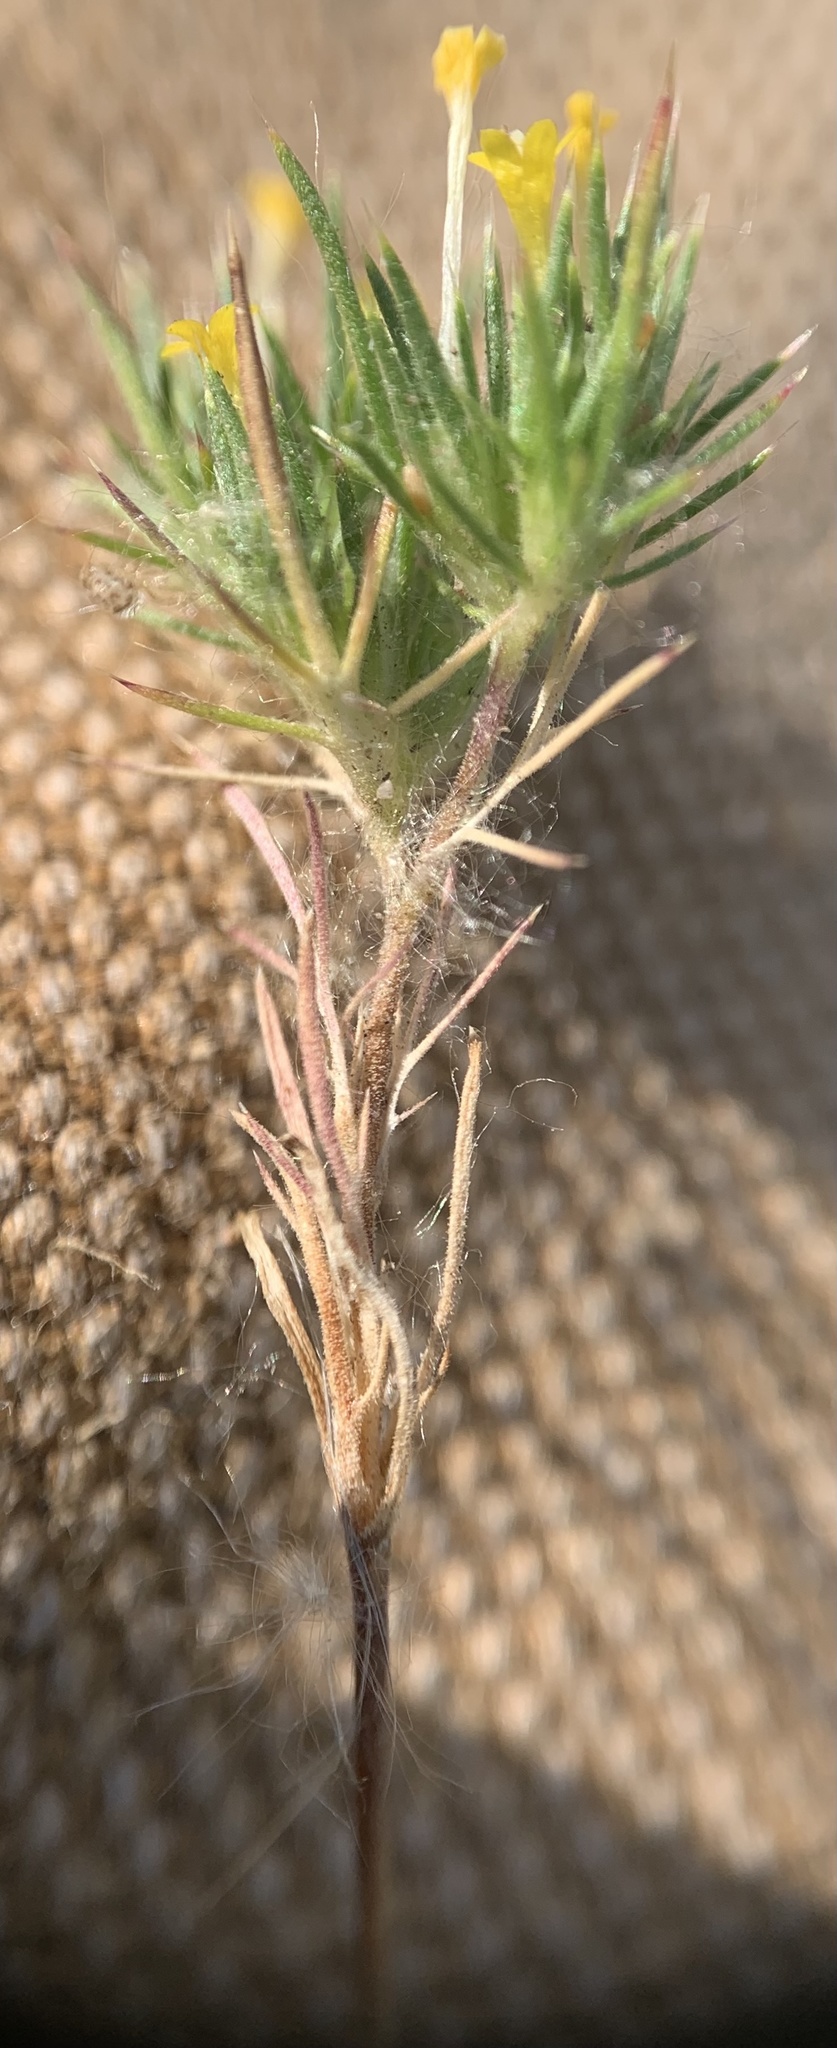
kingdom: Plantae
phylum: Tracheophyta
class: Magnoliopsida
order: Ericales
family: Polemoniaceae
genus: Navarretia
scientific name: Navarretia breweri
